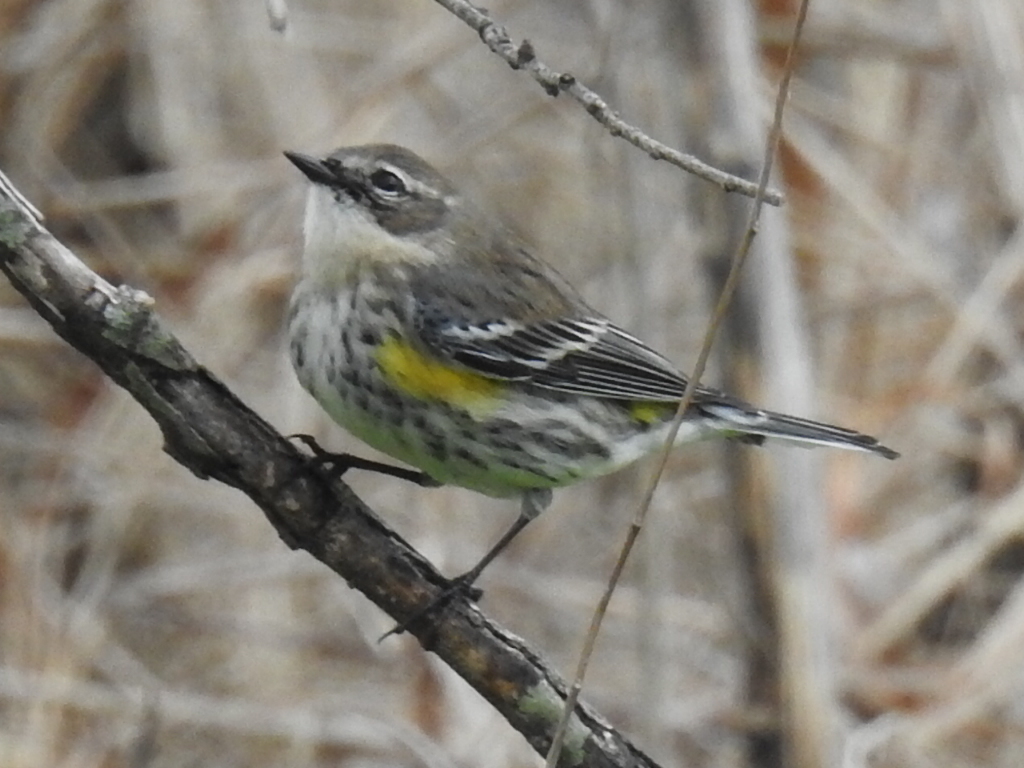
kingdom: Animalia
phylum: Chordata
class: Aves
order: Passeriformes
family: Parulidae
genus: Setophaga
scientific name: Setophaga coronata
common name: Myrtle warbler
